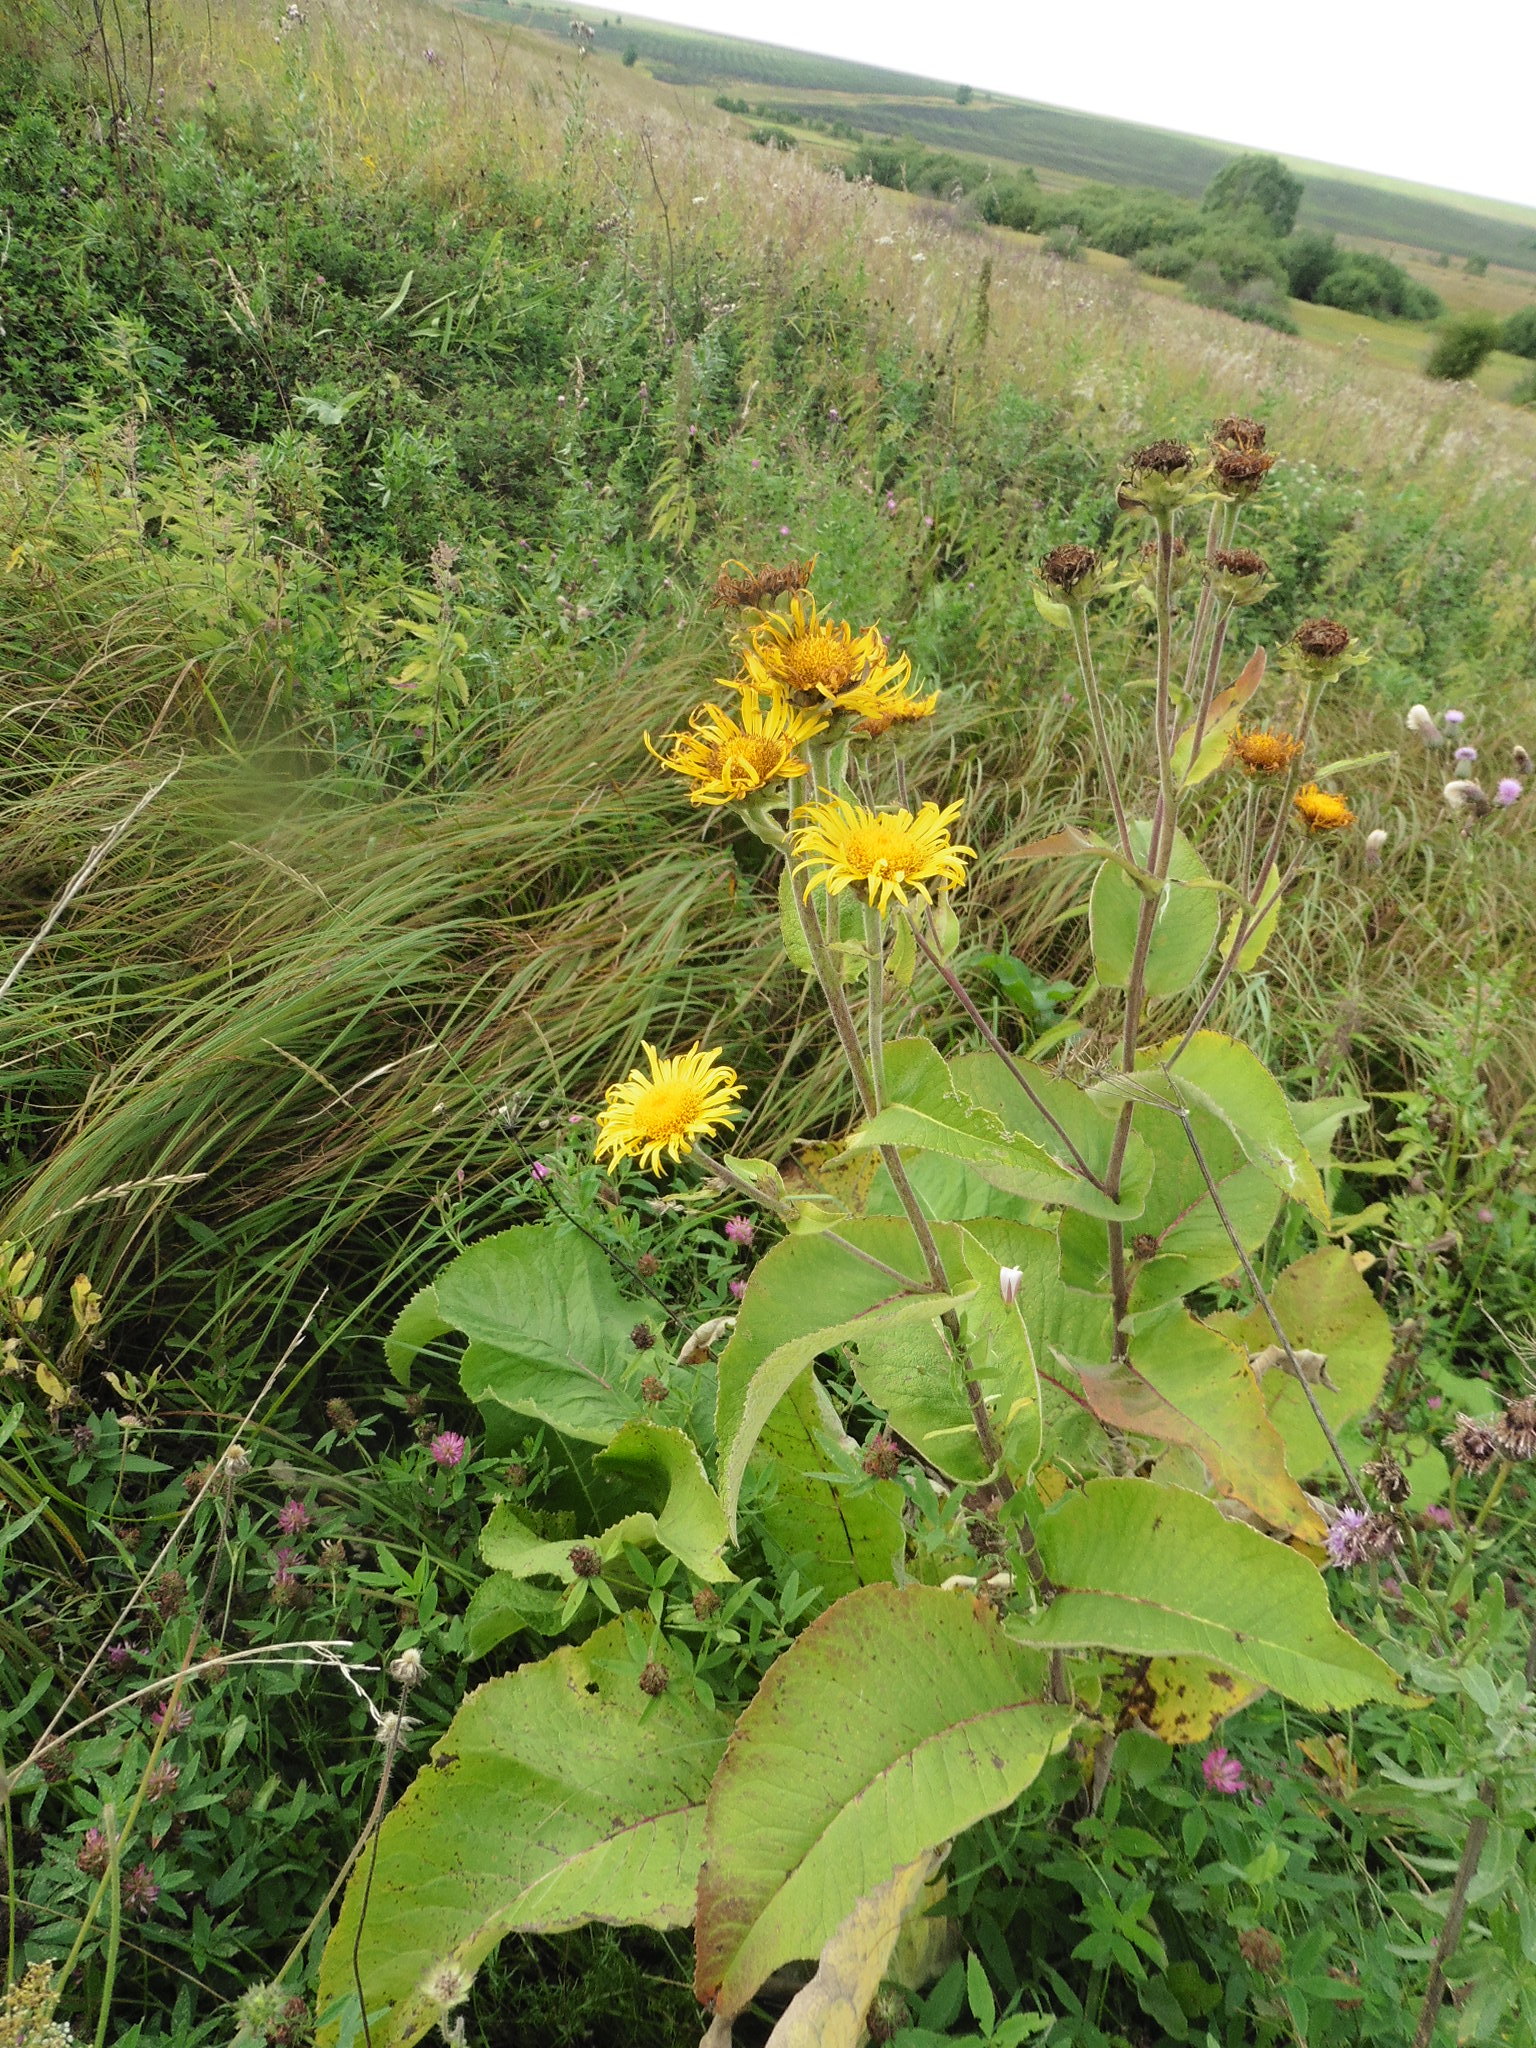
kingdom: Plantae
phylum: Tracheophyta
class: Magnoliopsida
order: Asterales
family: Asteraceae
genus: Inula
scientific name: Inula helenium
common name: Elecampane
